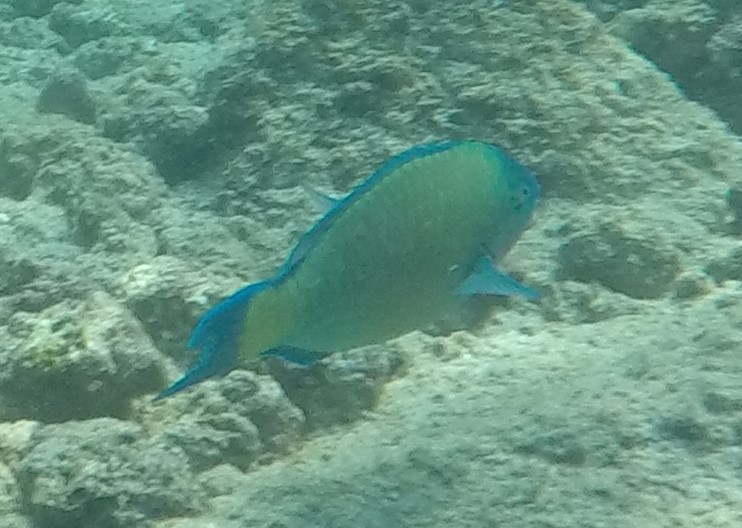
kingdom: Animalia
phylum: Chordata
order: Perciformes
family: Scaridae
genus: Scarus
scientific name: Scarus psittacus
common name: Palenose parrotfish
